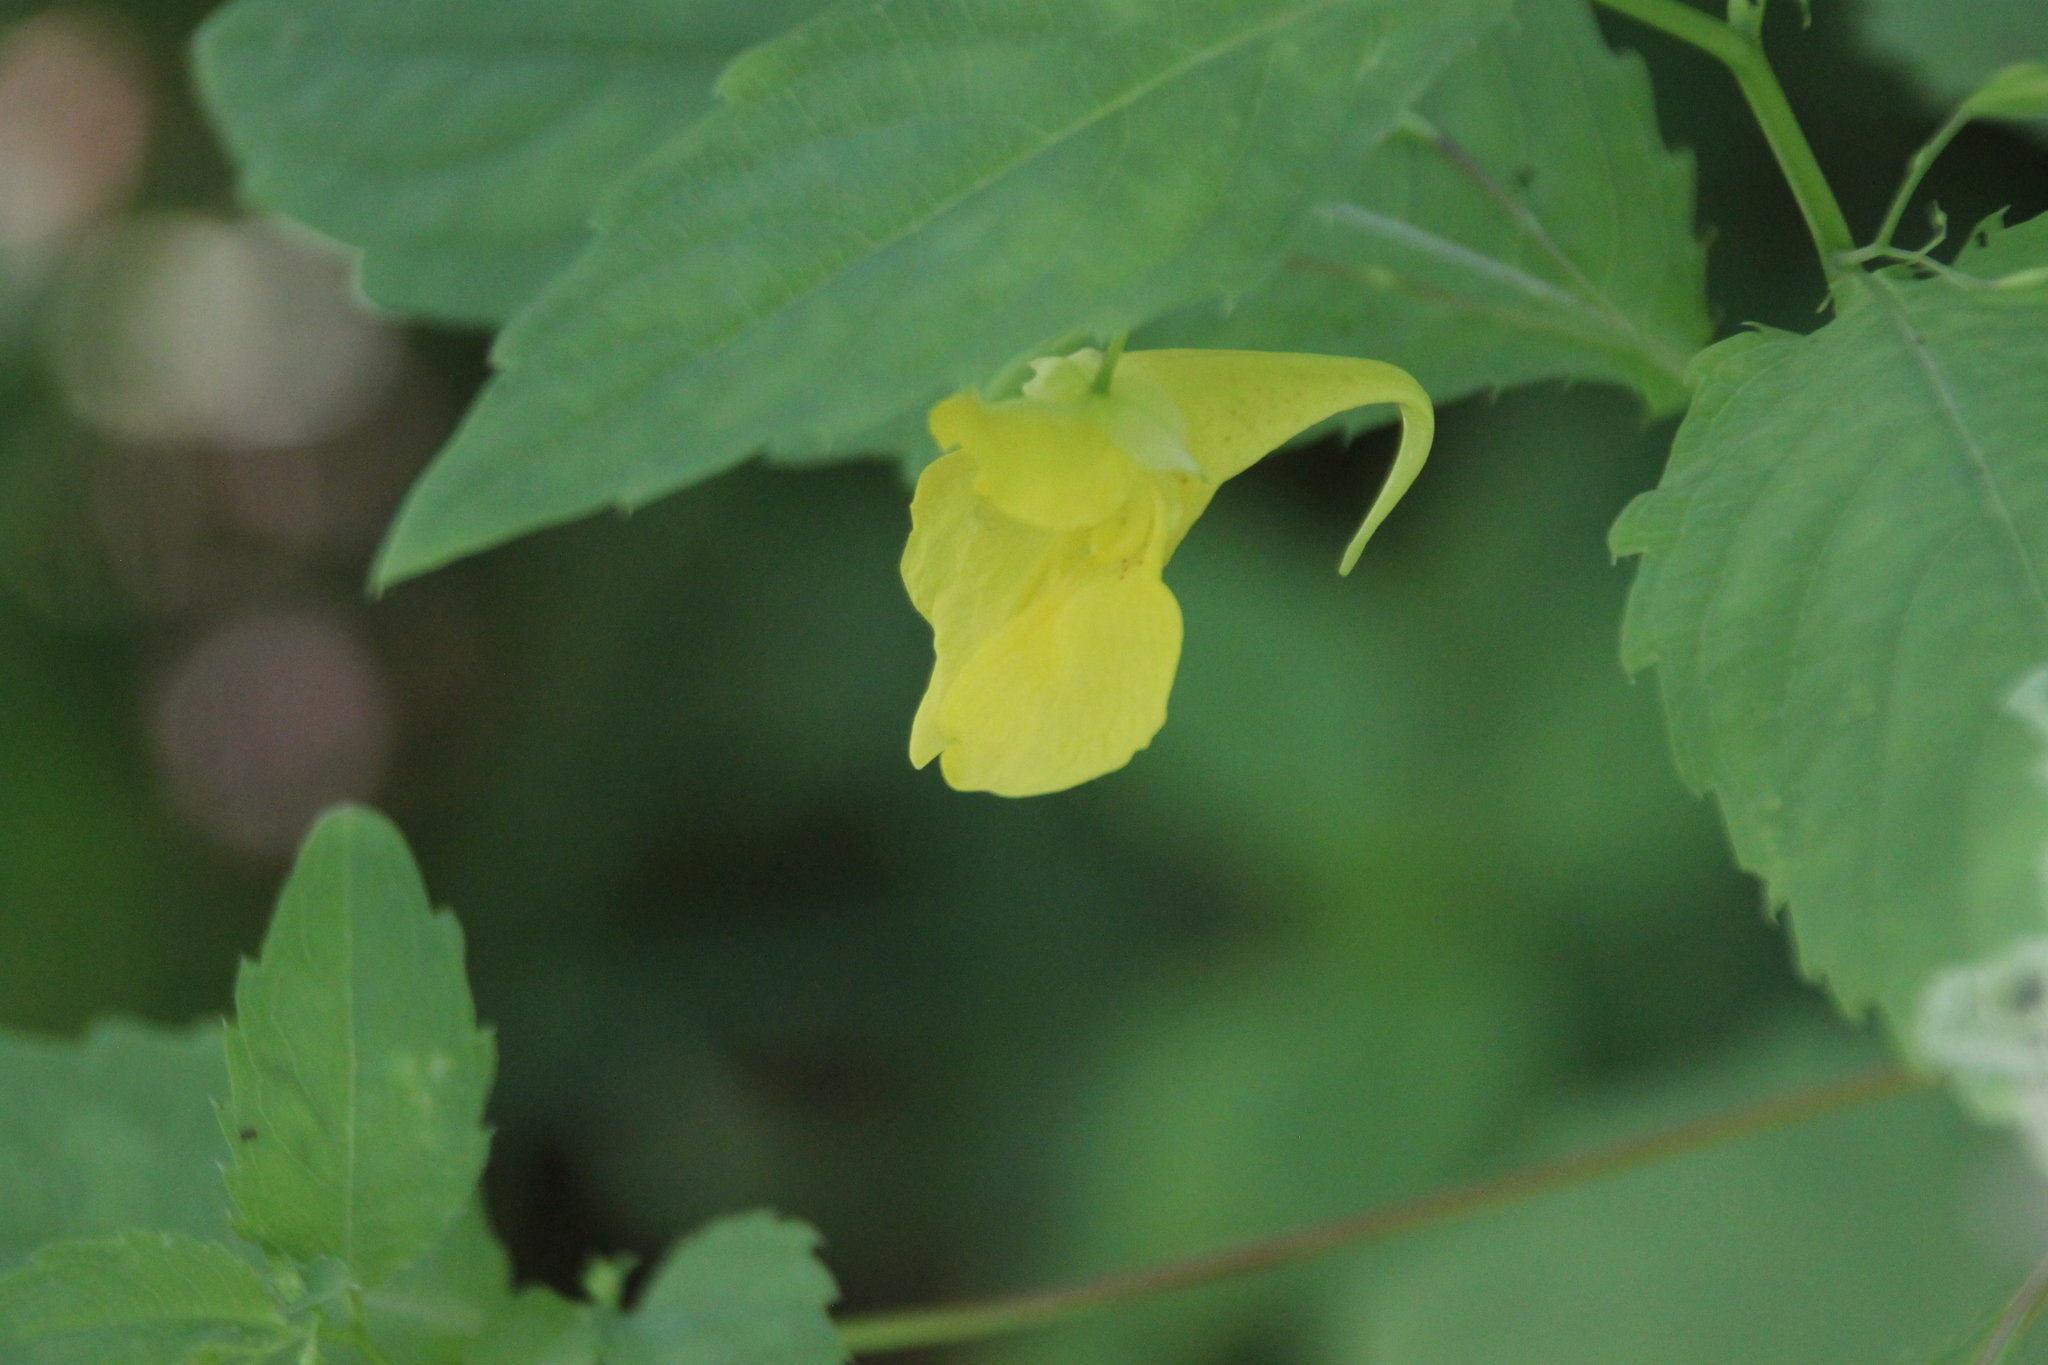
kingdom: Plantae
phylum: Tracheophyta
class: Magnoliopsida
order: Ericales
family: Balsaminaceae
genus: Impatiens
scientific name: Impatiens noli-tangere
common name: Touch-me-not balsam
